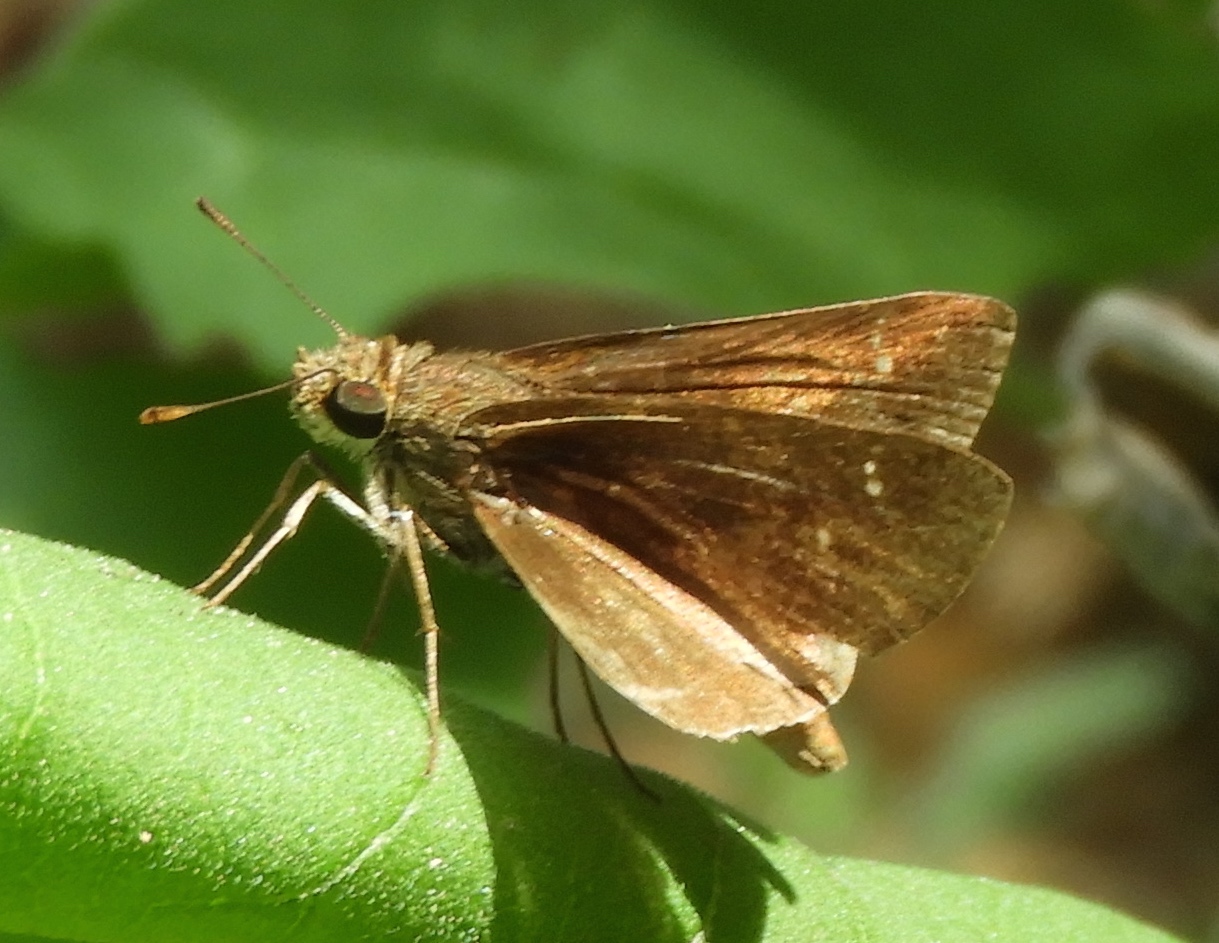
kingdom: Animalia
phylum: Arthropoda
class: Insecta
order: Lepidoptera
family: Hesperiidae
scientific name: Hesperiidae
